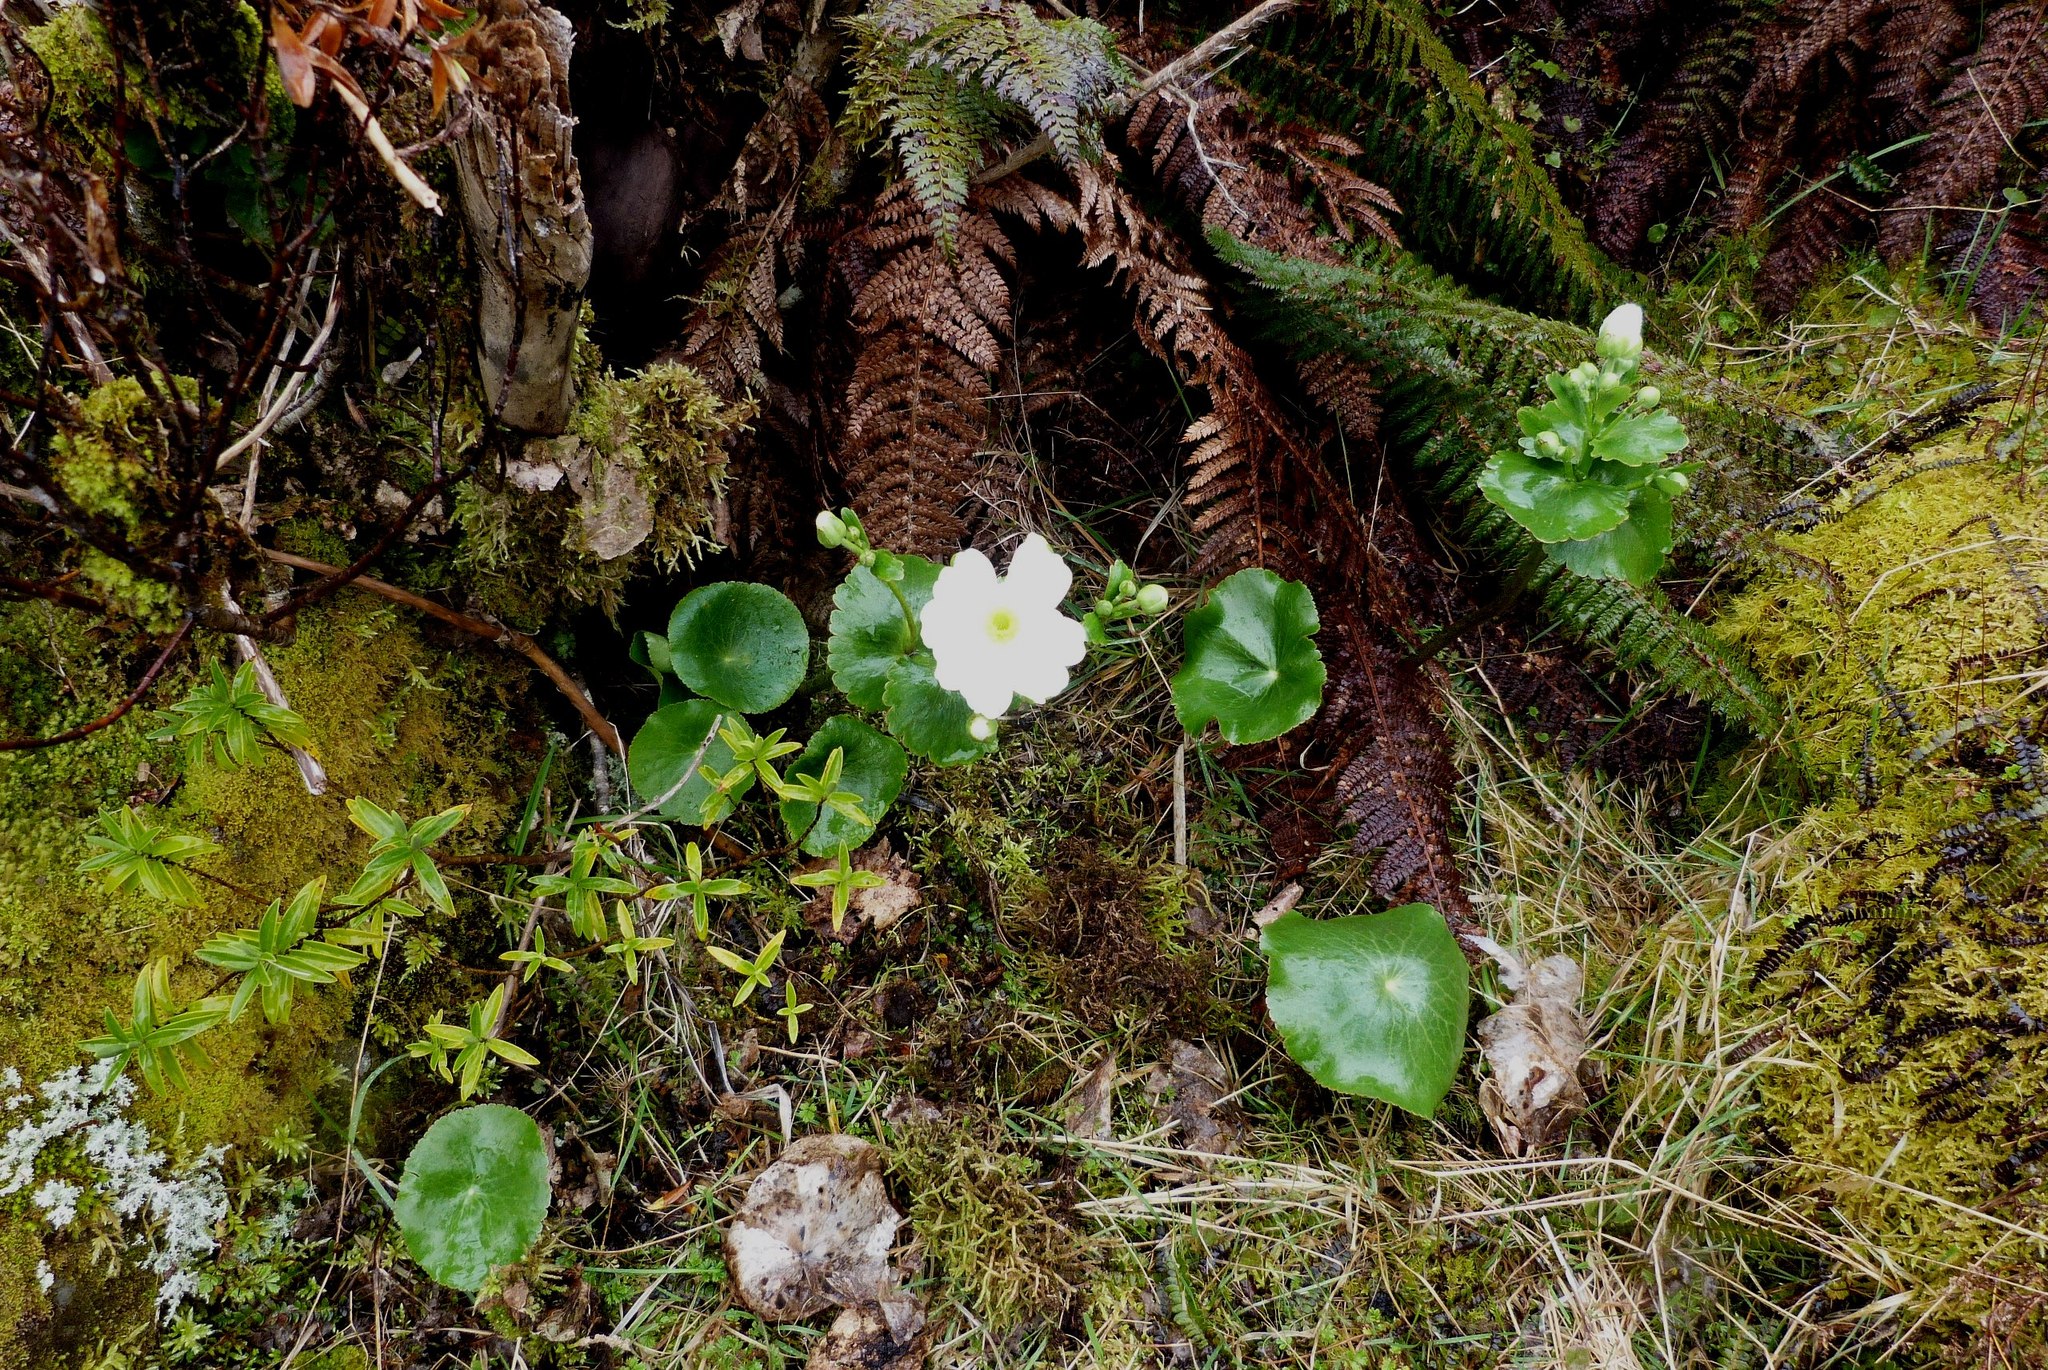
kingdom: Plantae
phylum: Tracheophyta
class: Magnoliopsida
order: Ranunculales
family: Ranunculaceae
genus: Ranunculus
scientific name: Ranunculus lyallii
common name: Mountain-lily
